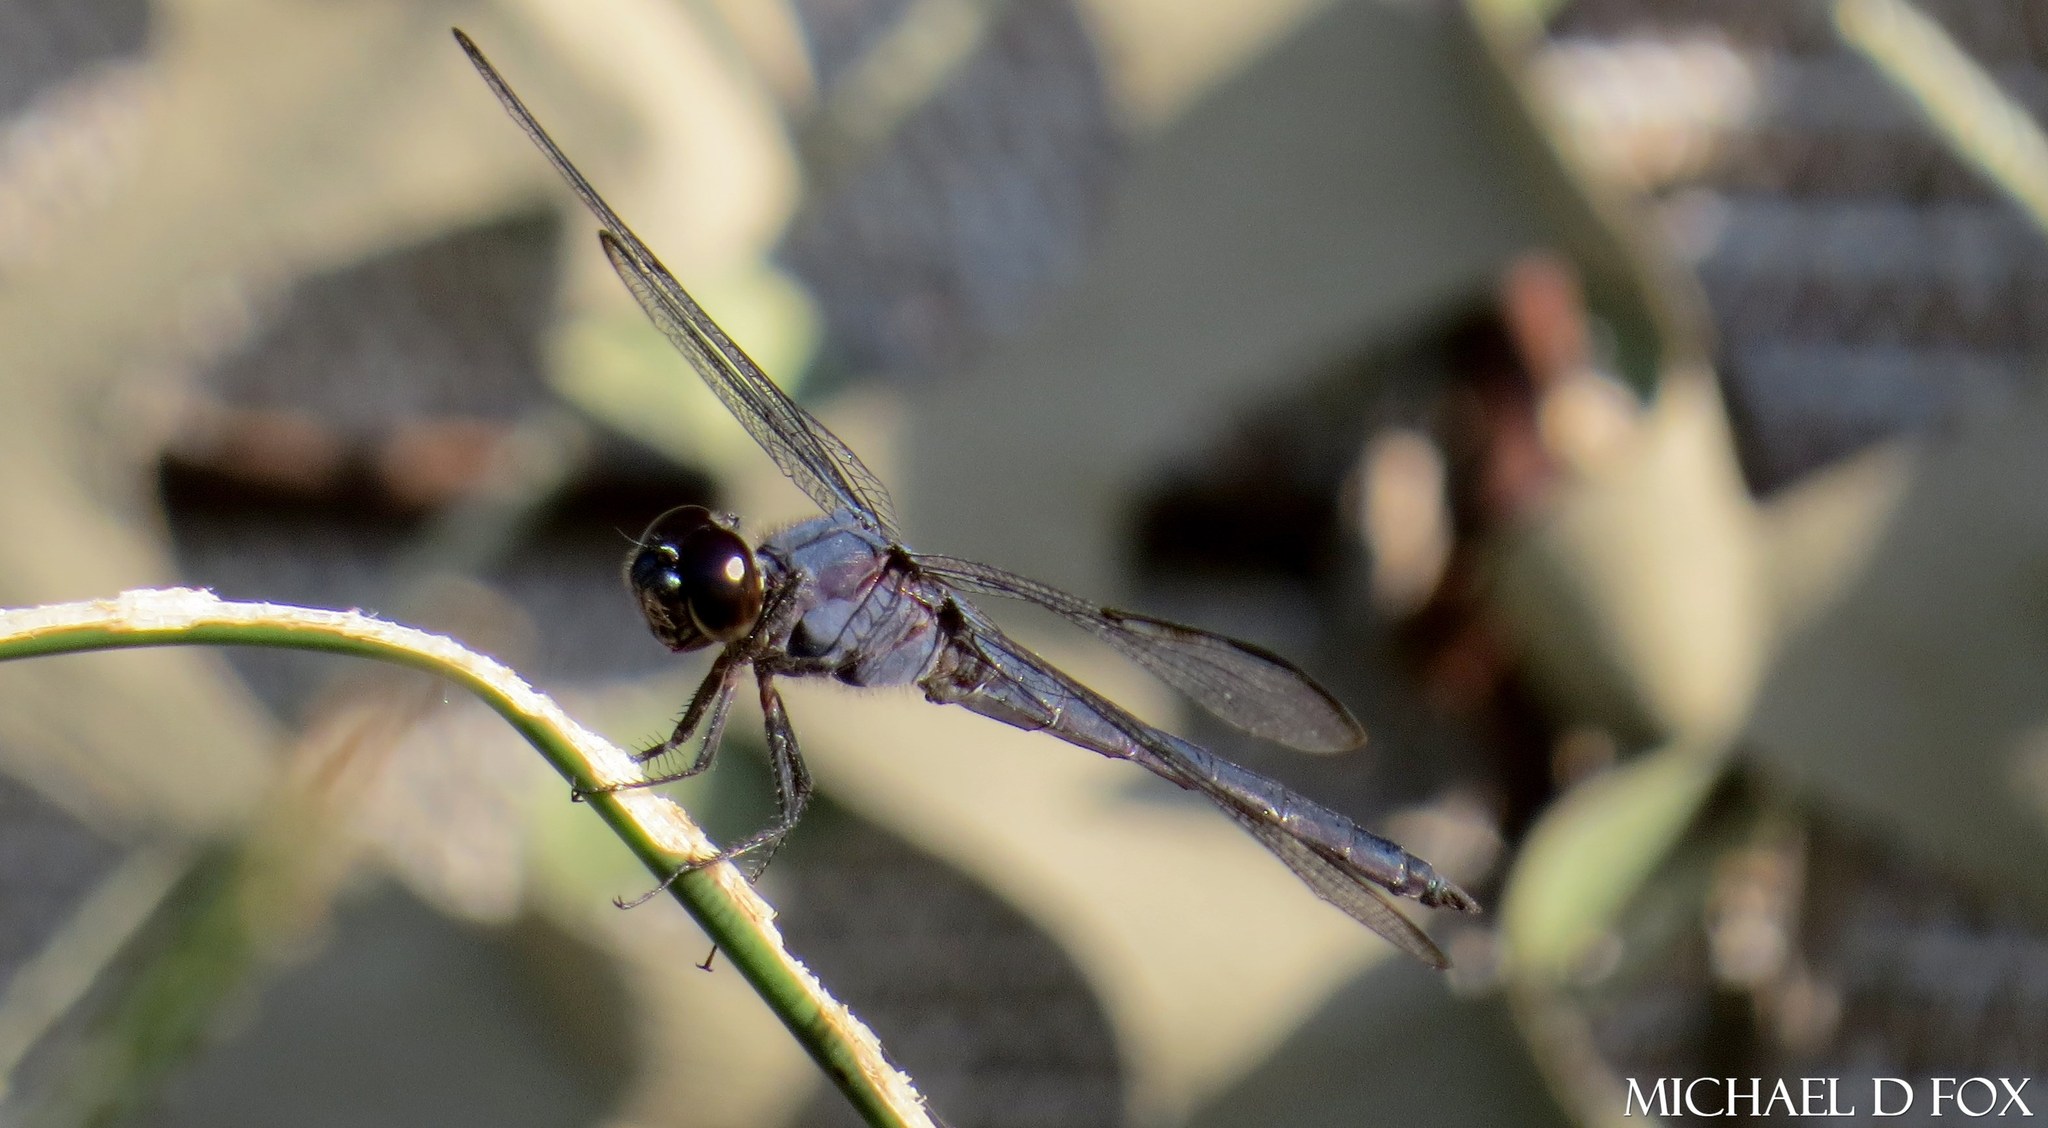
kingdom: Animalia
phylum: Arthropoda
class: Insecta
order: Odonata
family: Libellulidae
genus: Libellula
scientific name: Libellula incesta
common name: Slaty skimmer
